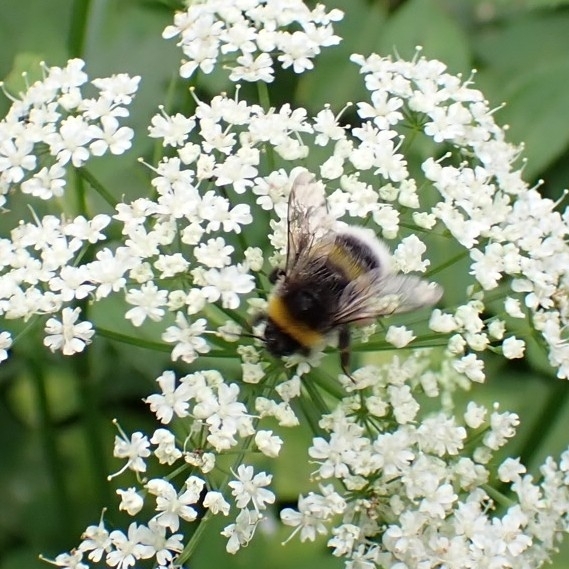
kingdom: Animalia
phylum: Arthropoda
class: Insecta
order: Hymenoptera
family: Apidae
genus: Bombus
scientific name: Bombus
